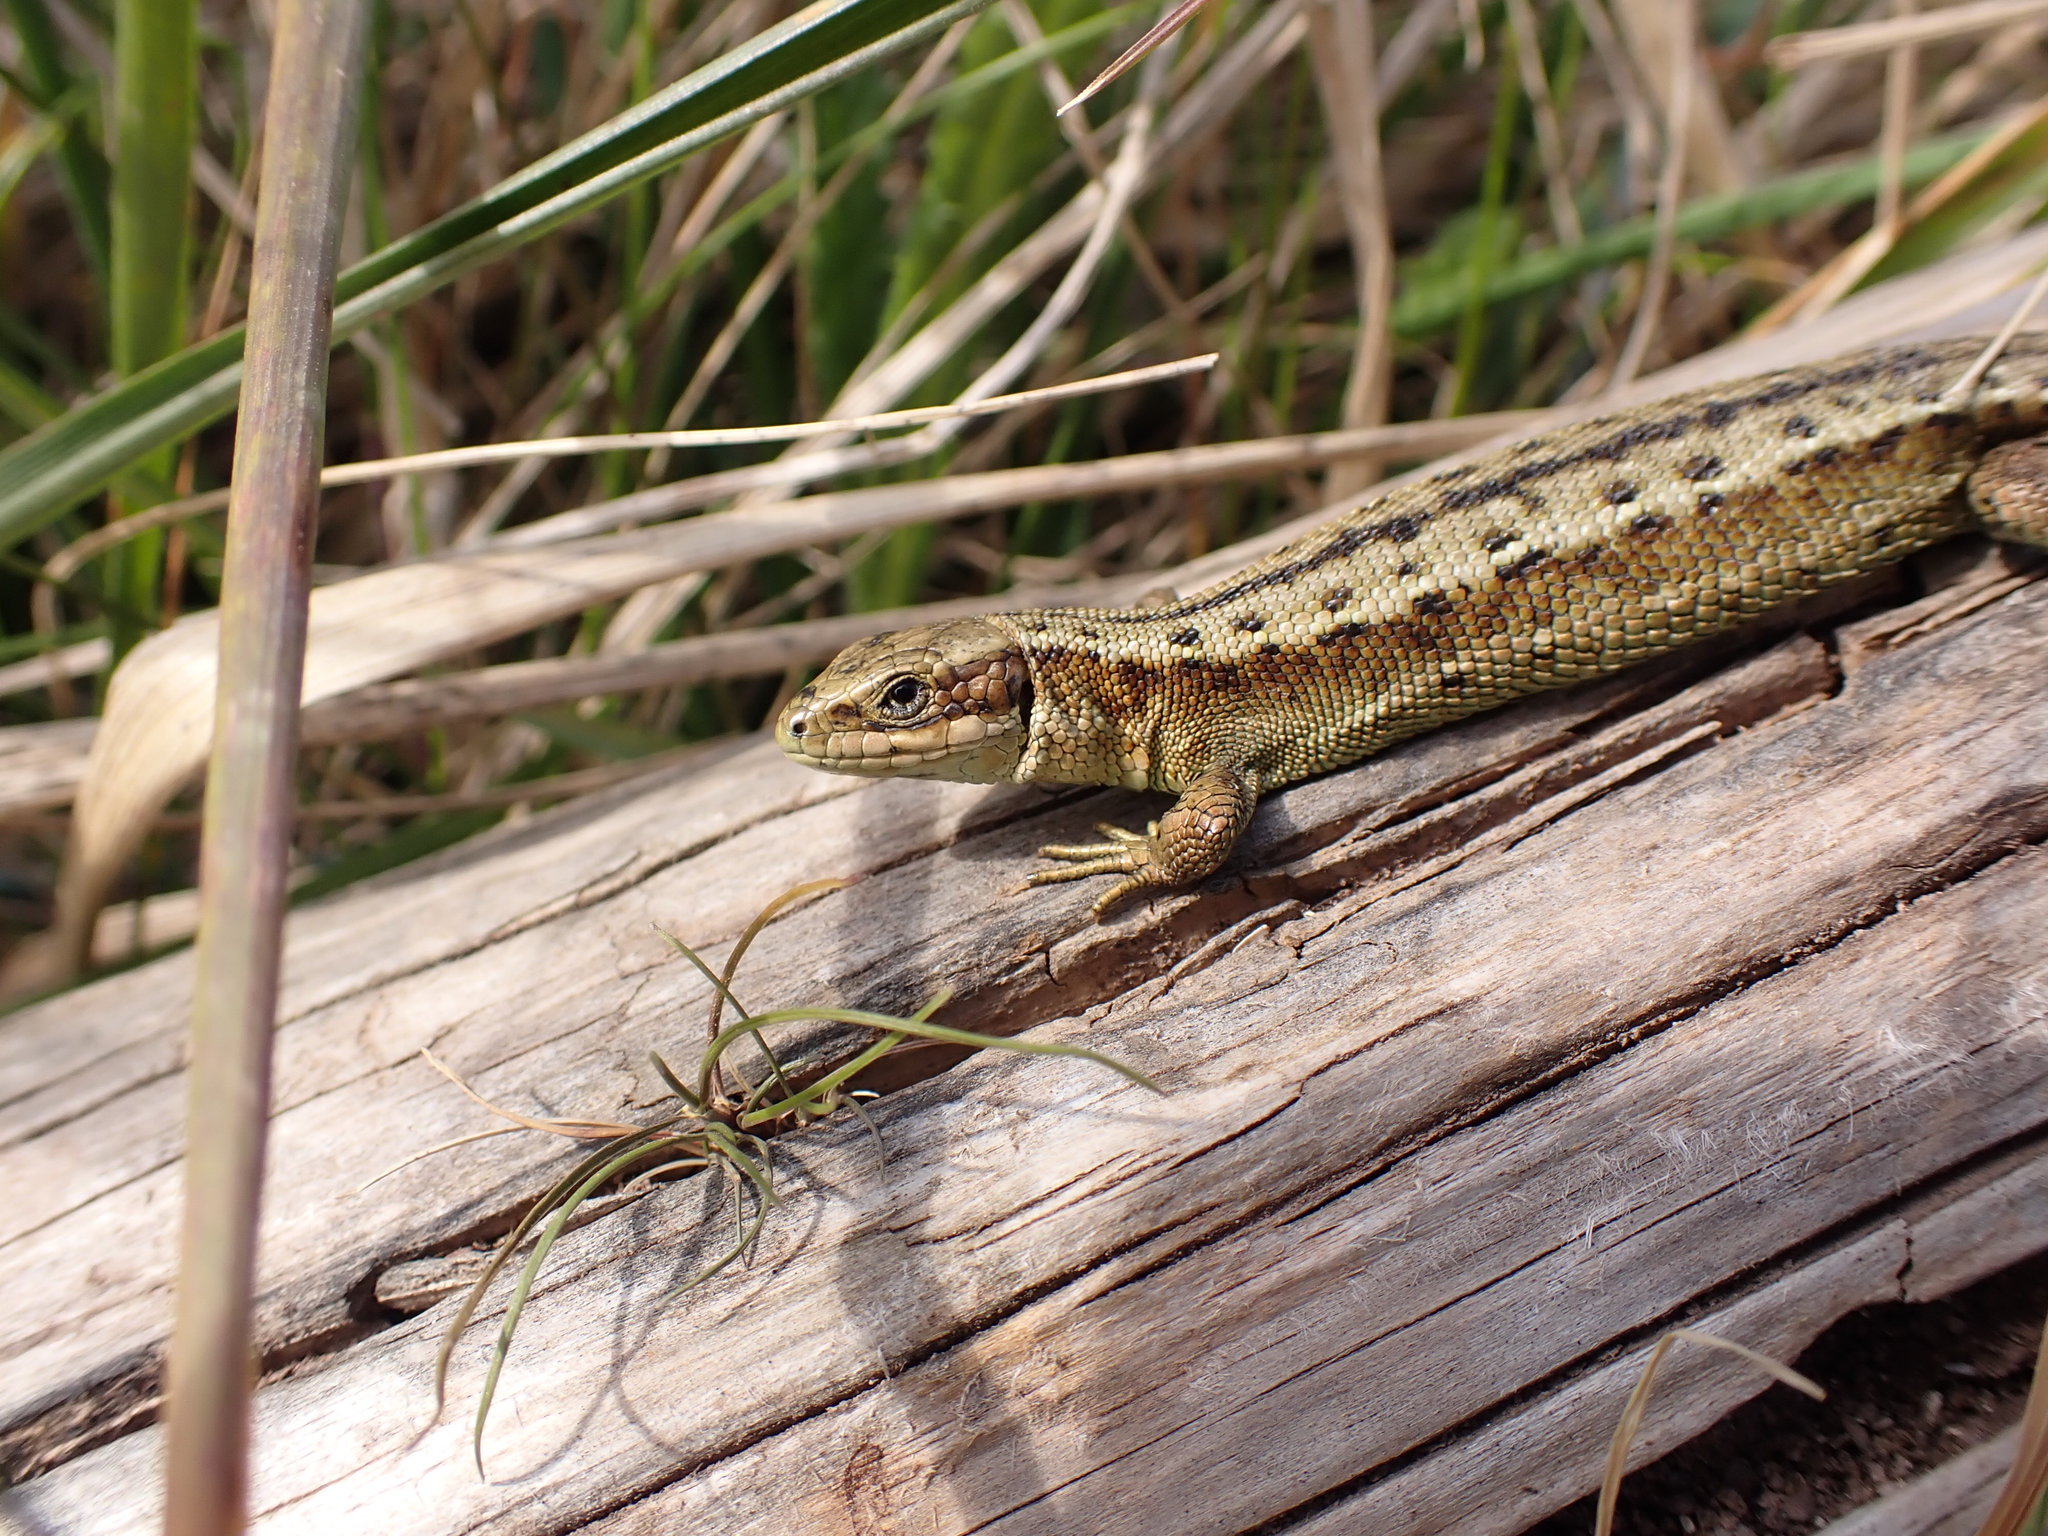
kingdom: Animalia
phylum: Chordata
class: Squamata
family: Lacertidae
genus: Zootoca
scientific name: Zootoca vivipara
